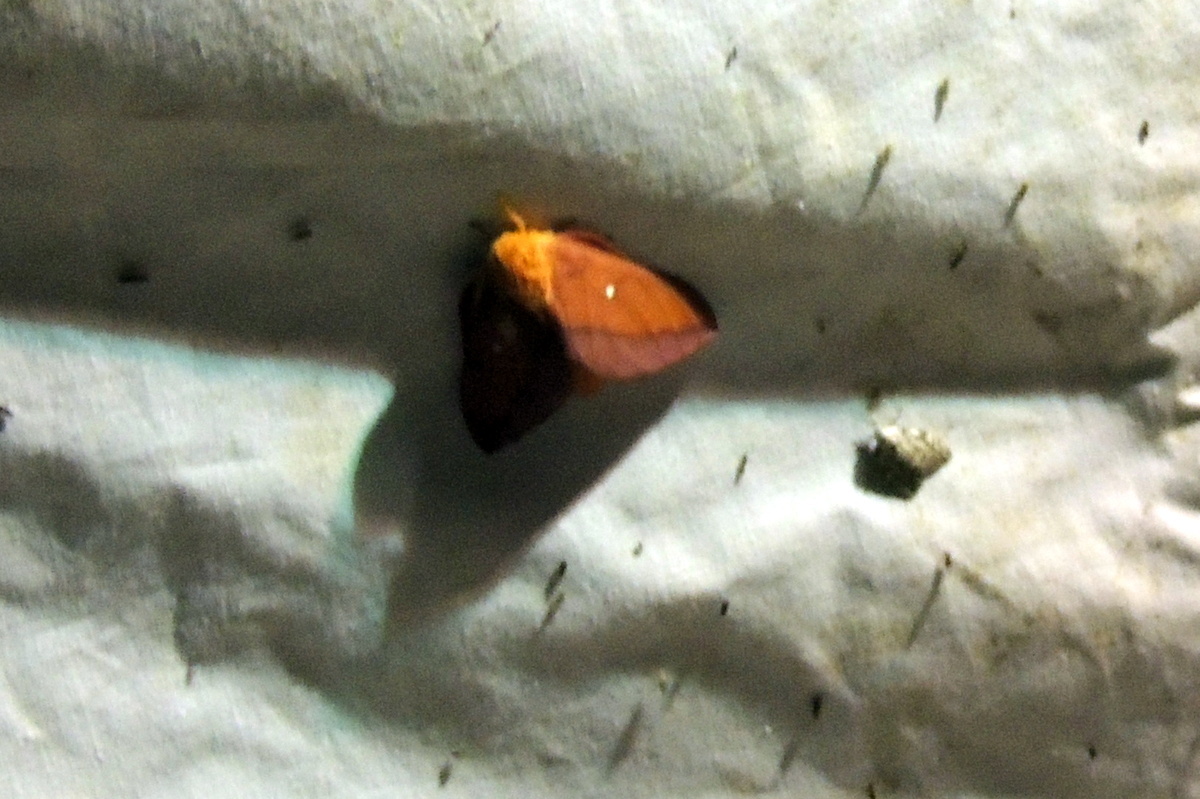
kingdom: Animalia
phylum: Arthropoda
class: Insecta
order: Lepidoptera
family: Saturniidae
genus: Anisota
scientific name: Anisota virginiensis
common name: Pink striped oakworm moth
